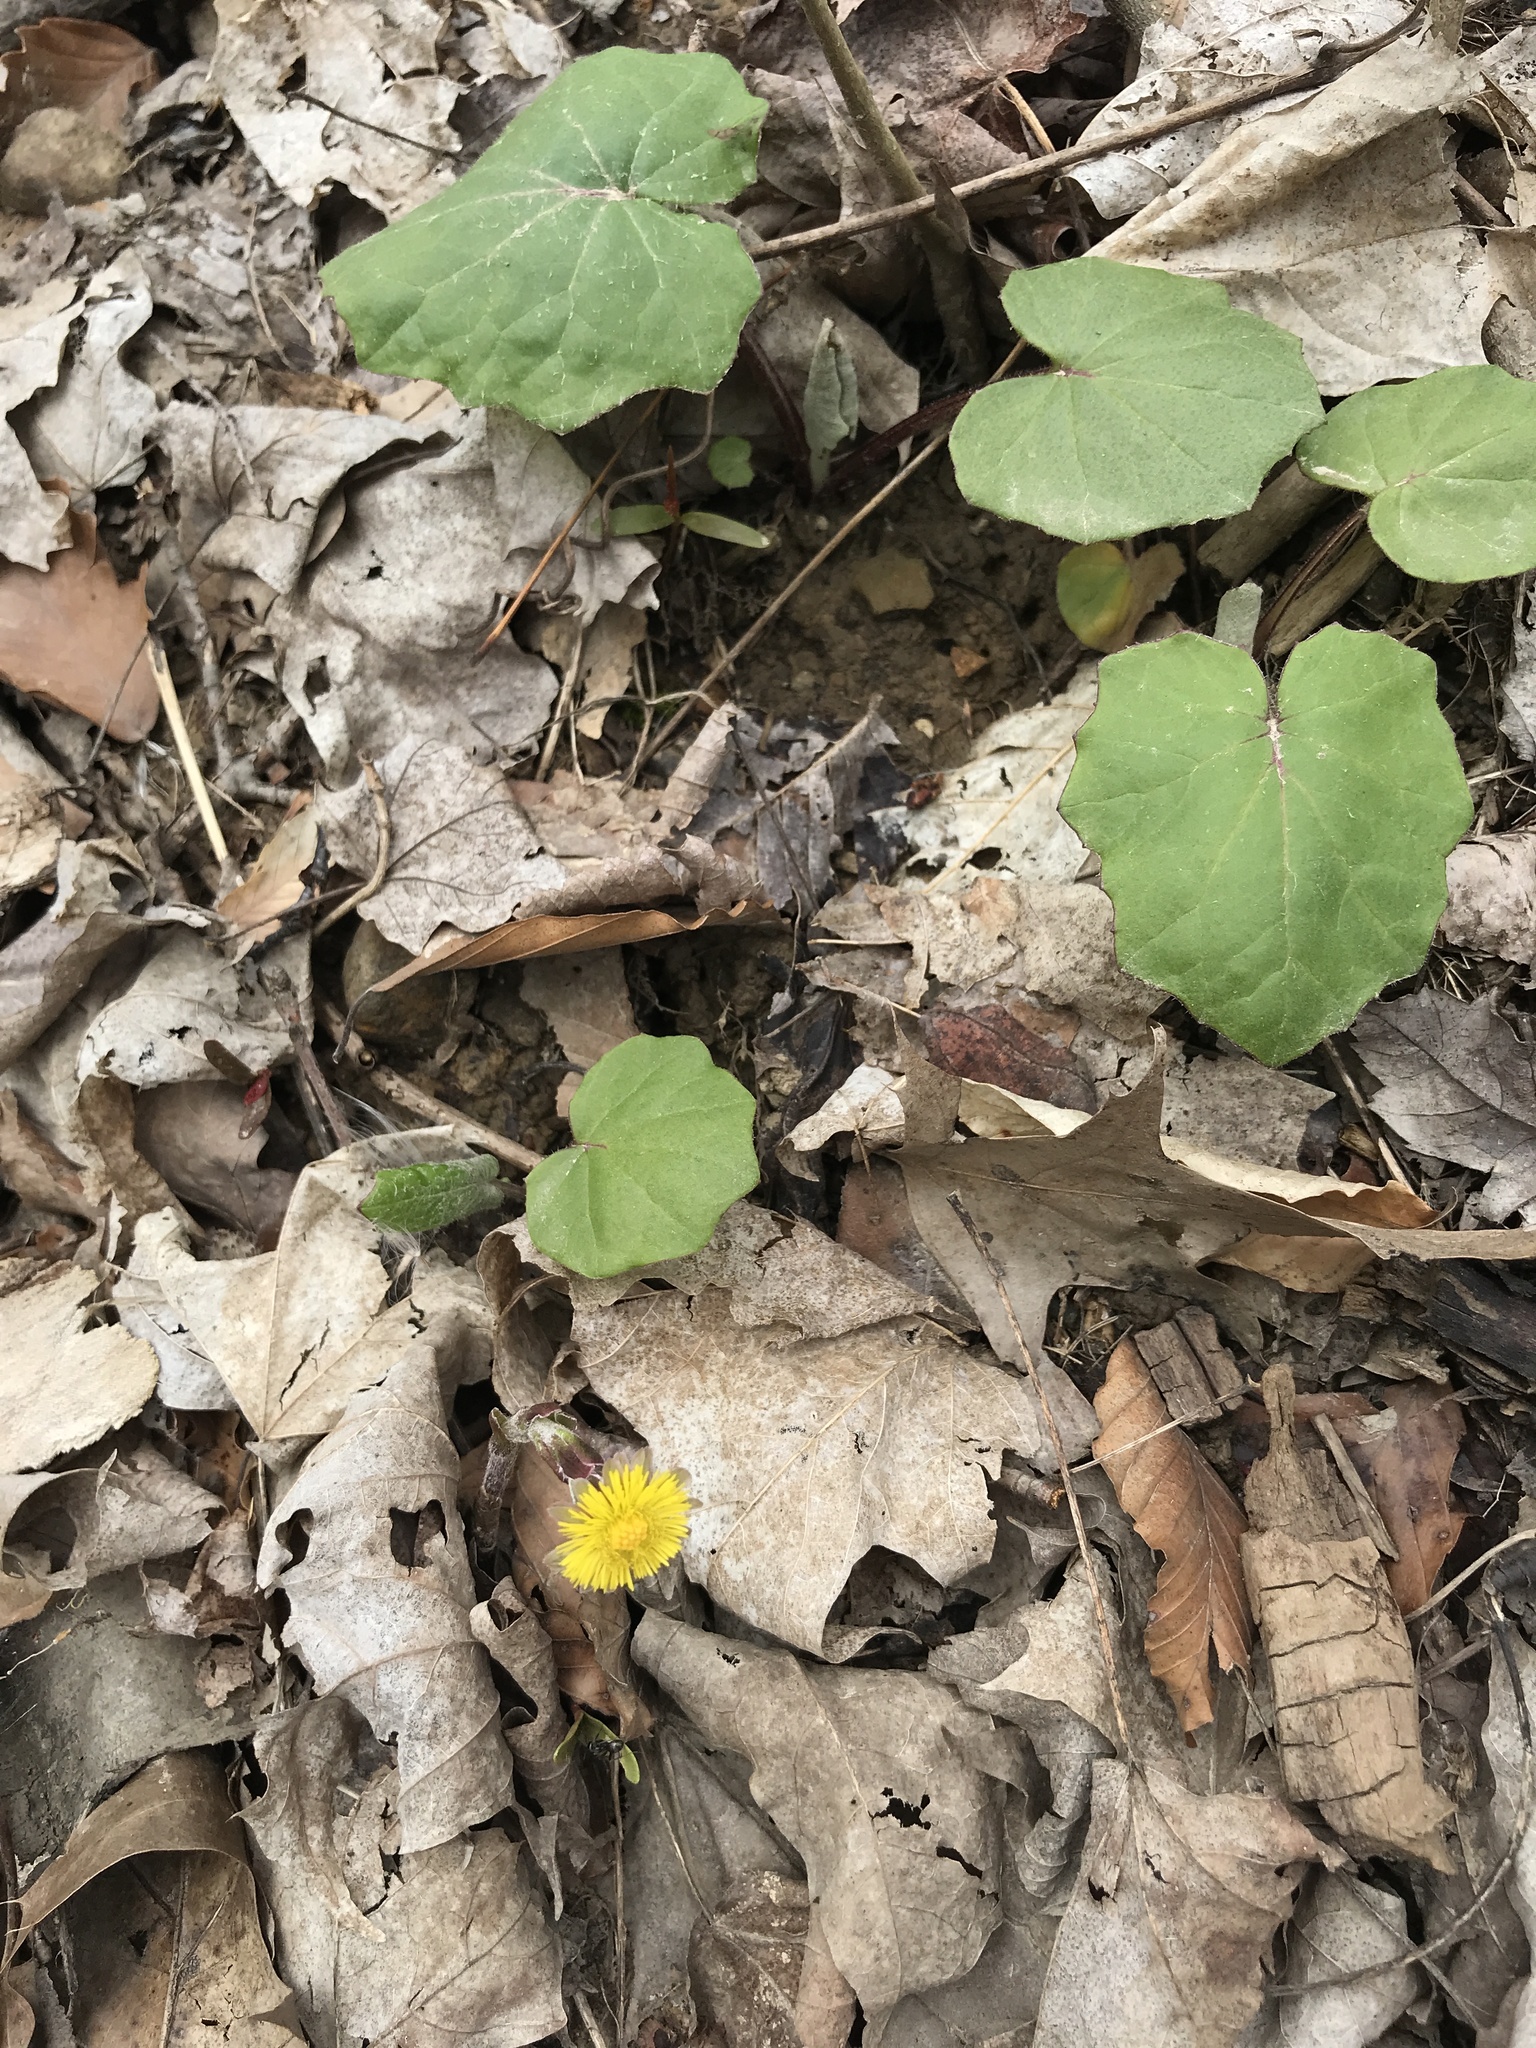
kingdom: Plantae
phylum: Tracheophyta
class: Magnoliopsida
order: Asterales
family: Asteraceae
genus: Tussilago
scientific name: Tussilago farfara
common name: Coltsfoot
